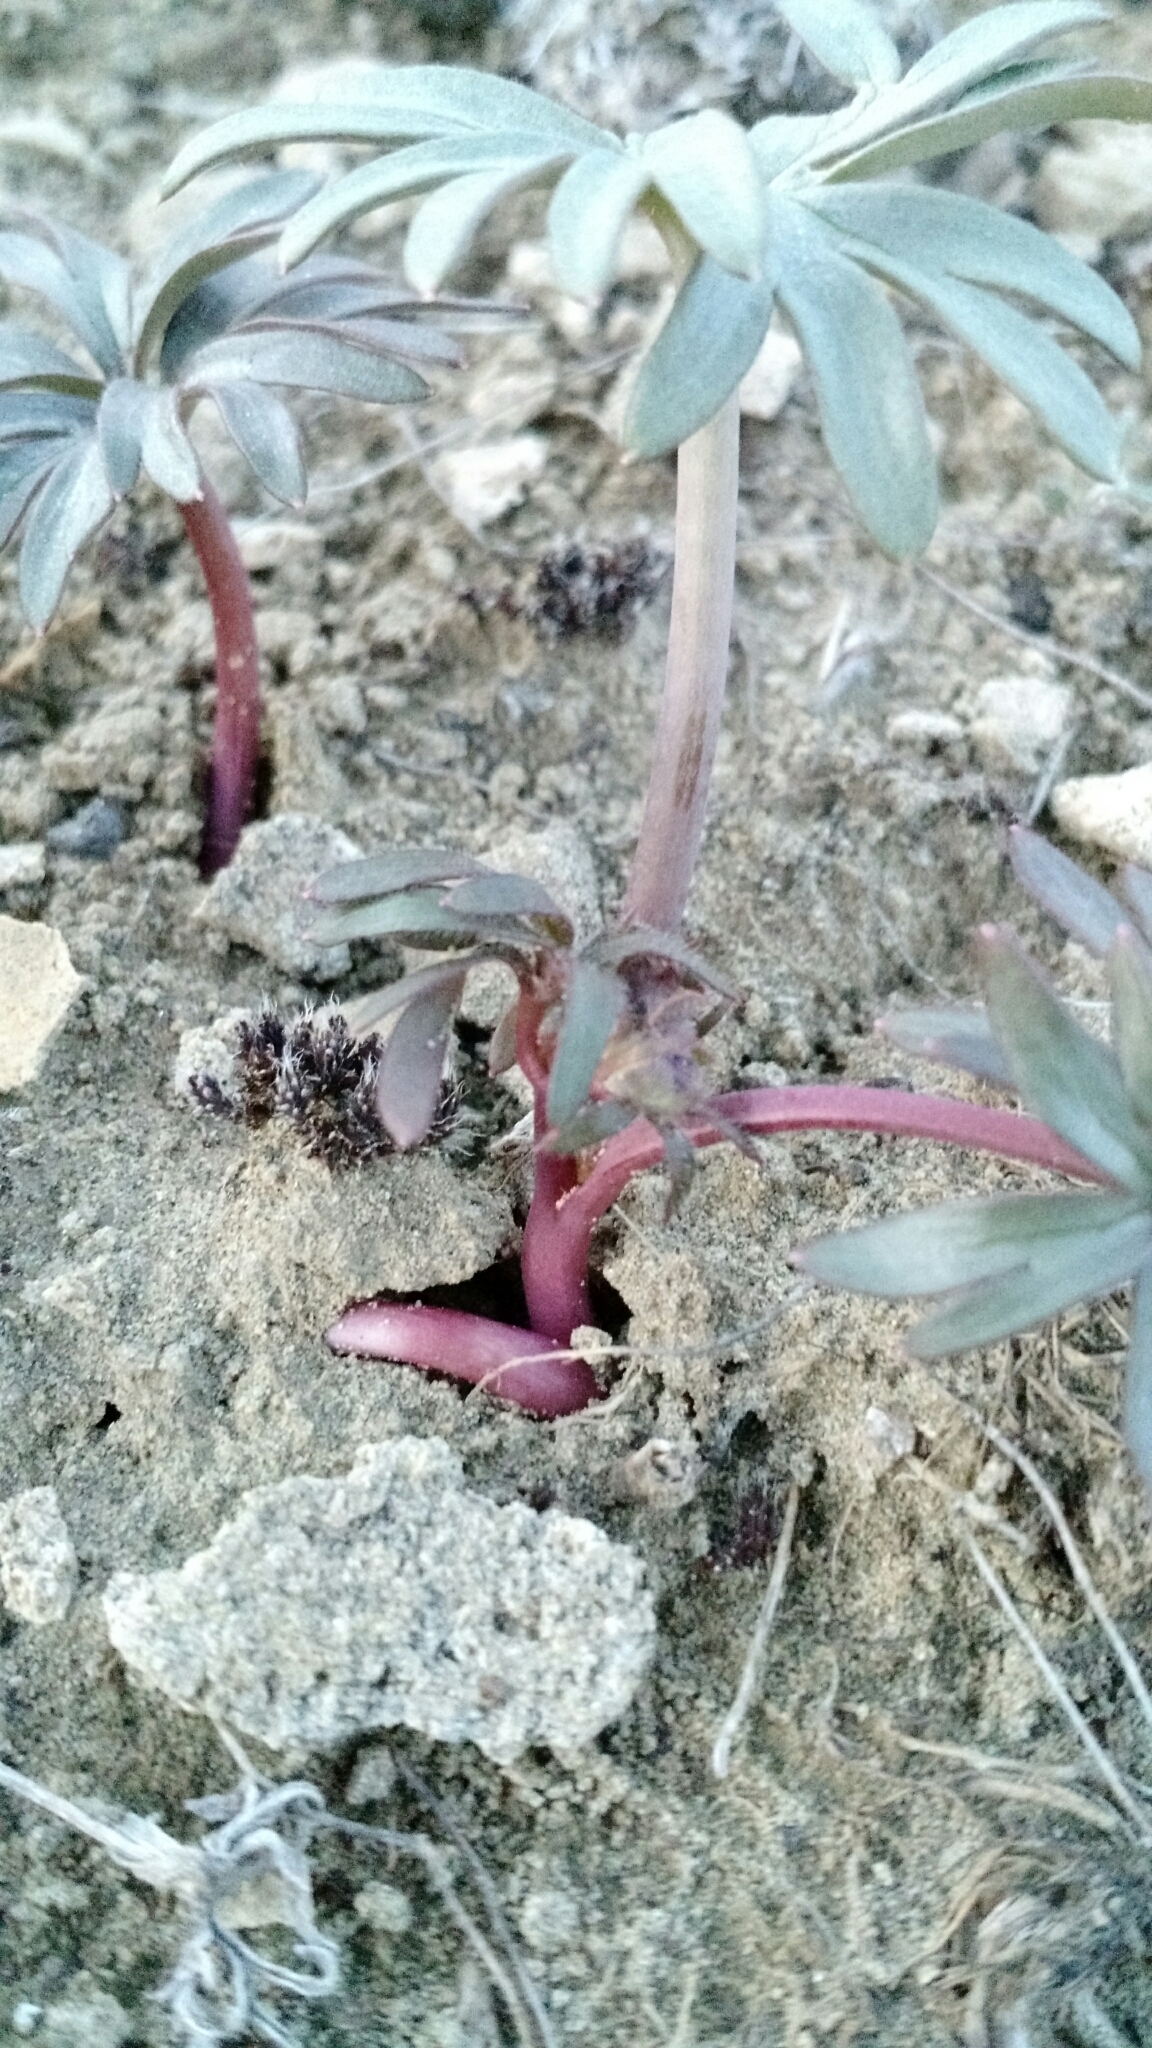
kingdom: Plantae
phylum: Tracheophyta
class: Magnoliopsida
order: Ranunculales
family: Ranunculaceae
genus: Delphinium
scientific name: Delphinium bicolor
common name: Low larkspur
